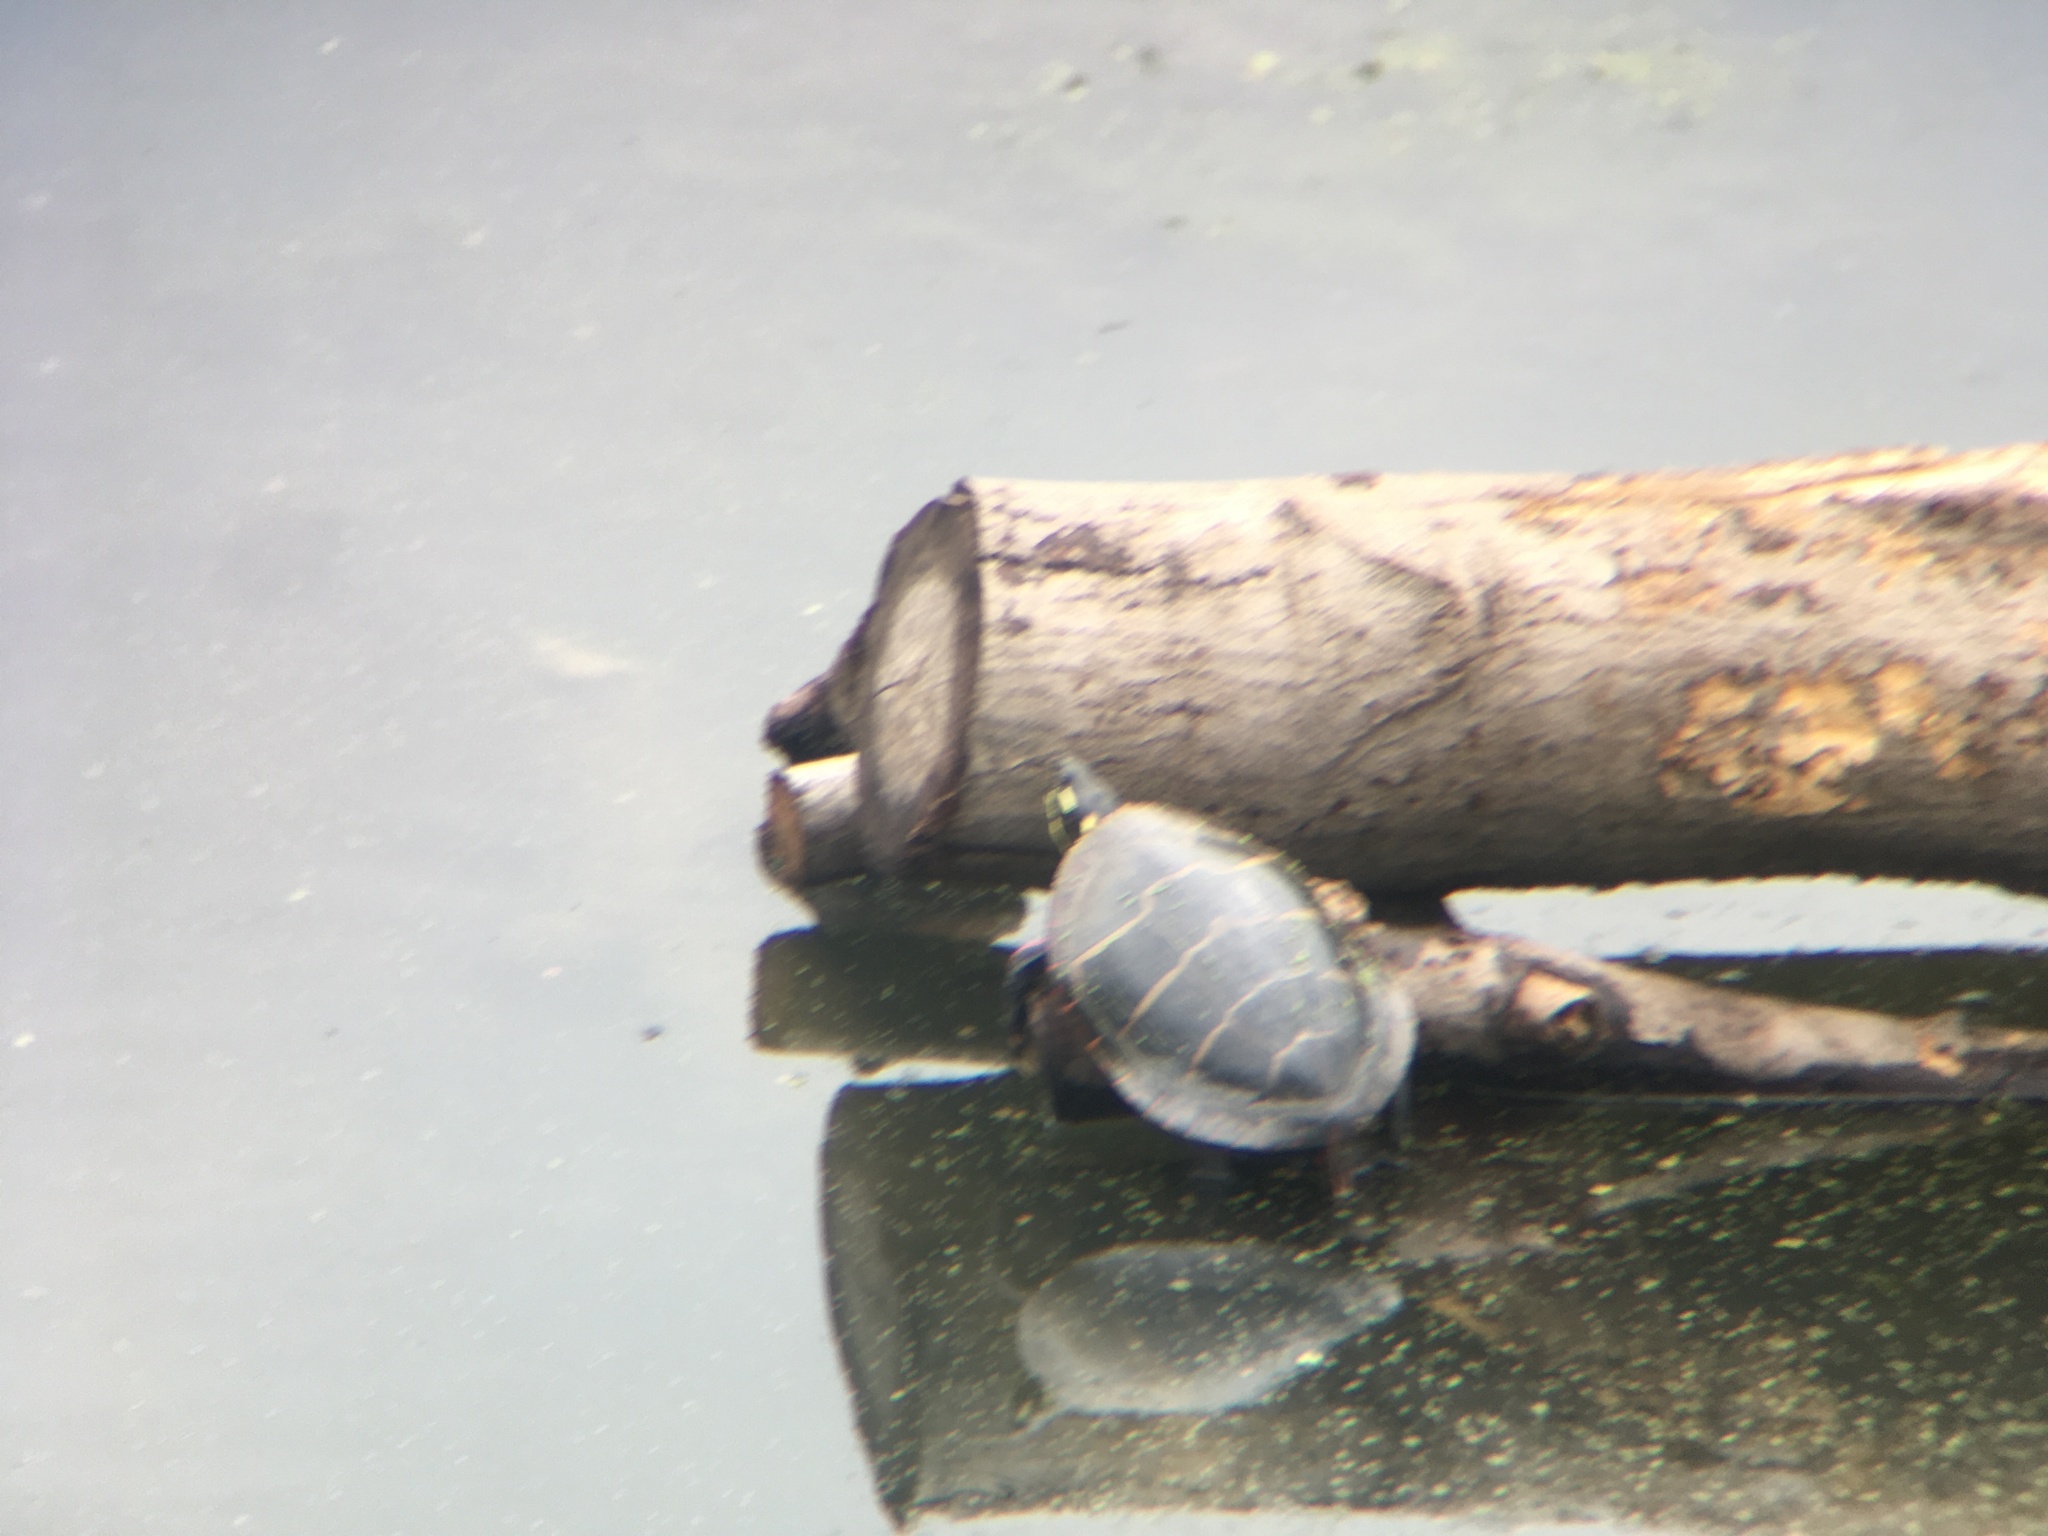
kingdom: Animalia
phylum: Chordata
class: Testudines
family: Emydidae
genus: Chrysemys
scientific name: Chrysemys picta
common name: Painted turtle
